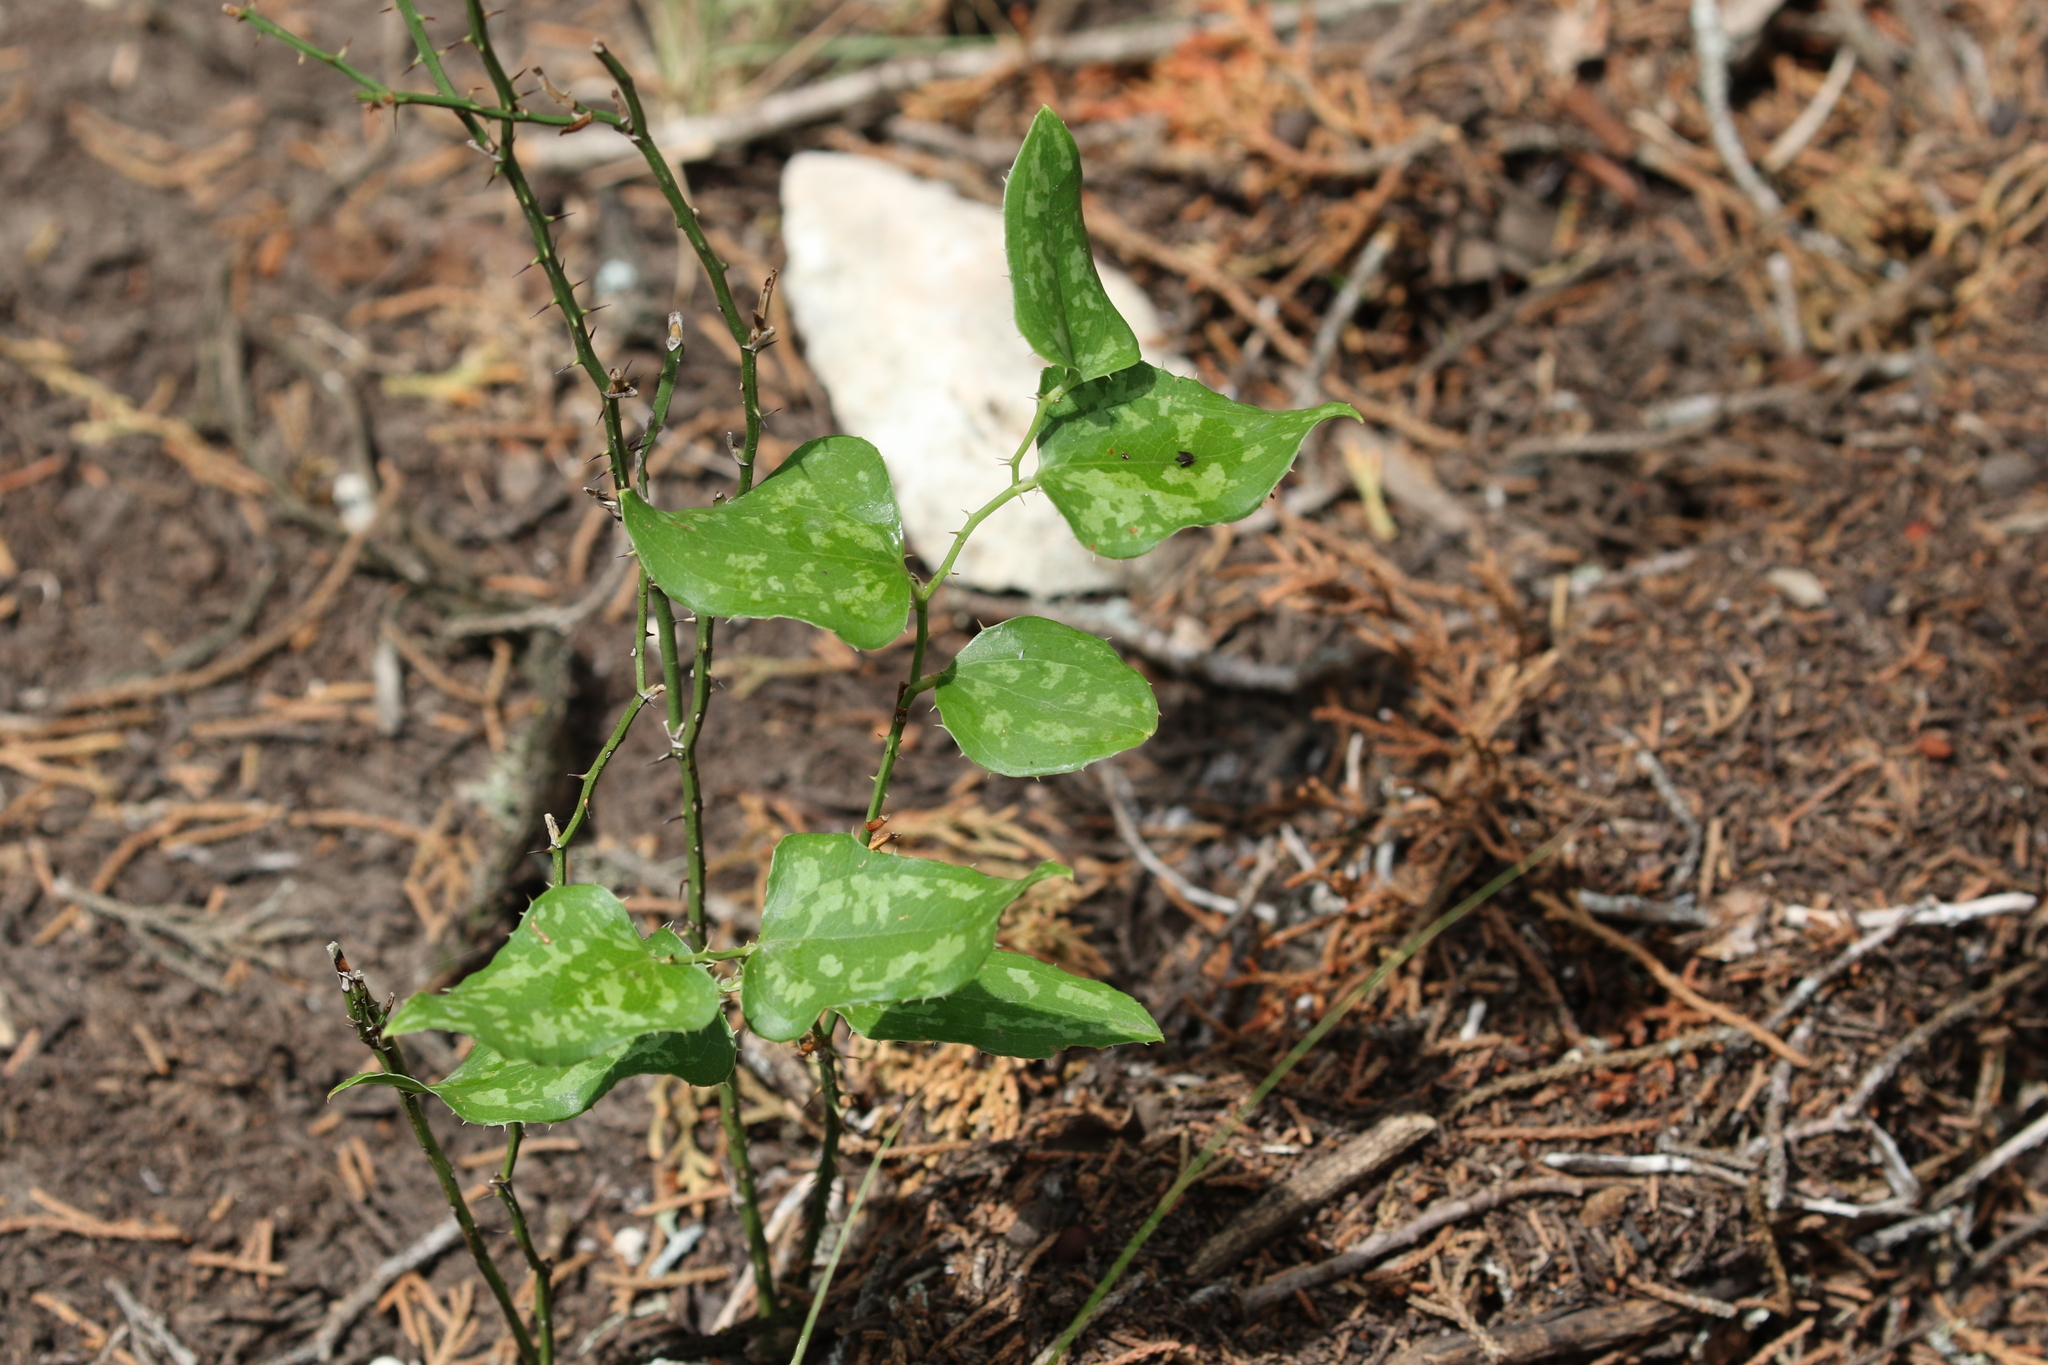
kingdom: Plantae
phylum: Tracheophyta
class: Liliopsida
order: Liliales
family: Smilacaceae
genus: Smilax
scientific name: Smilax bona-nox
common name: Catbrier
